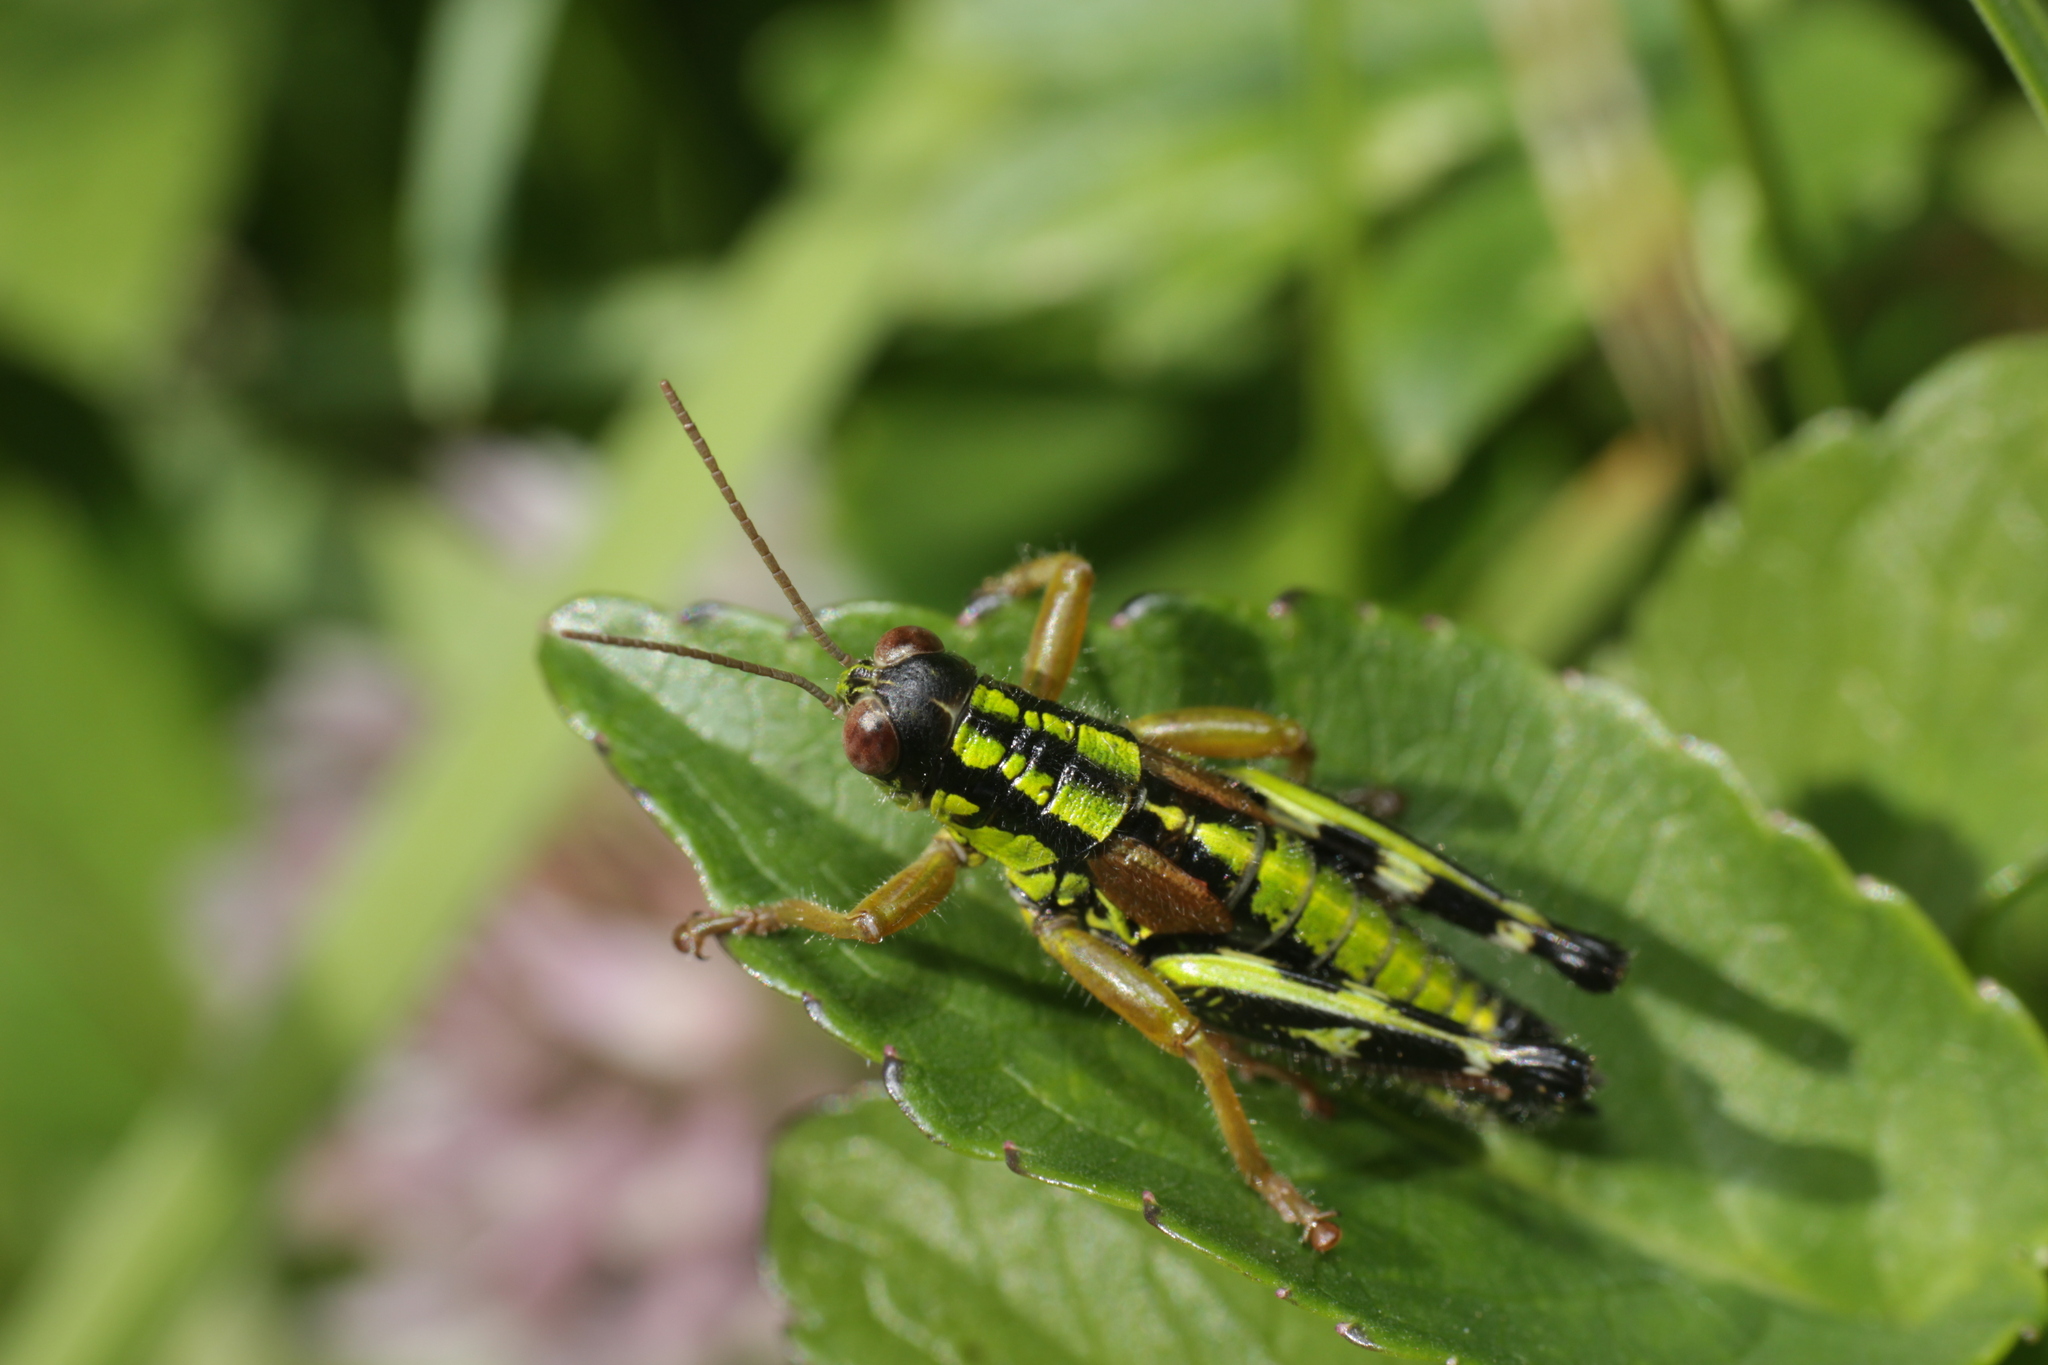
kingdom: Animalia
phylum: Arthropoda
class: Insecta
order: Orthoptera
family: Acrididae
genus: Miramella
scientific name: Miramella alpina
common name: Green mountain grasshopper
